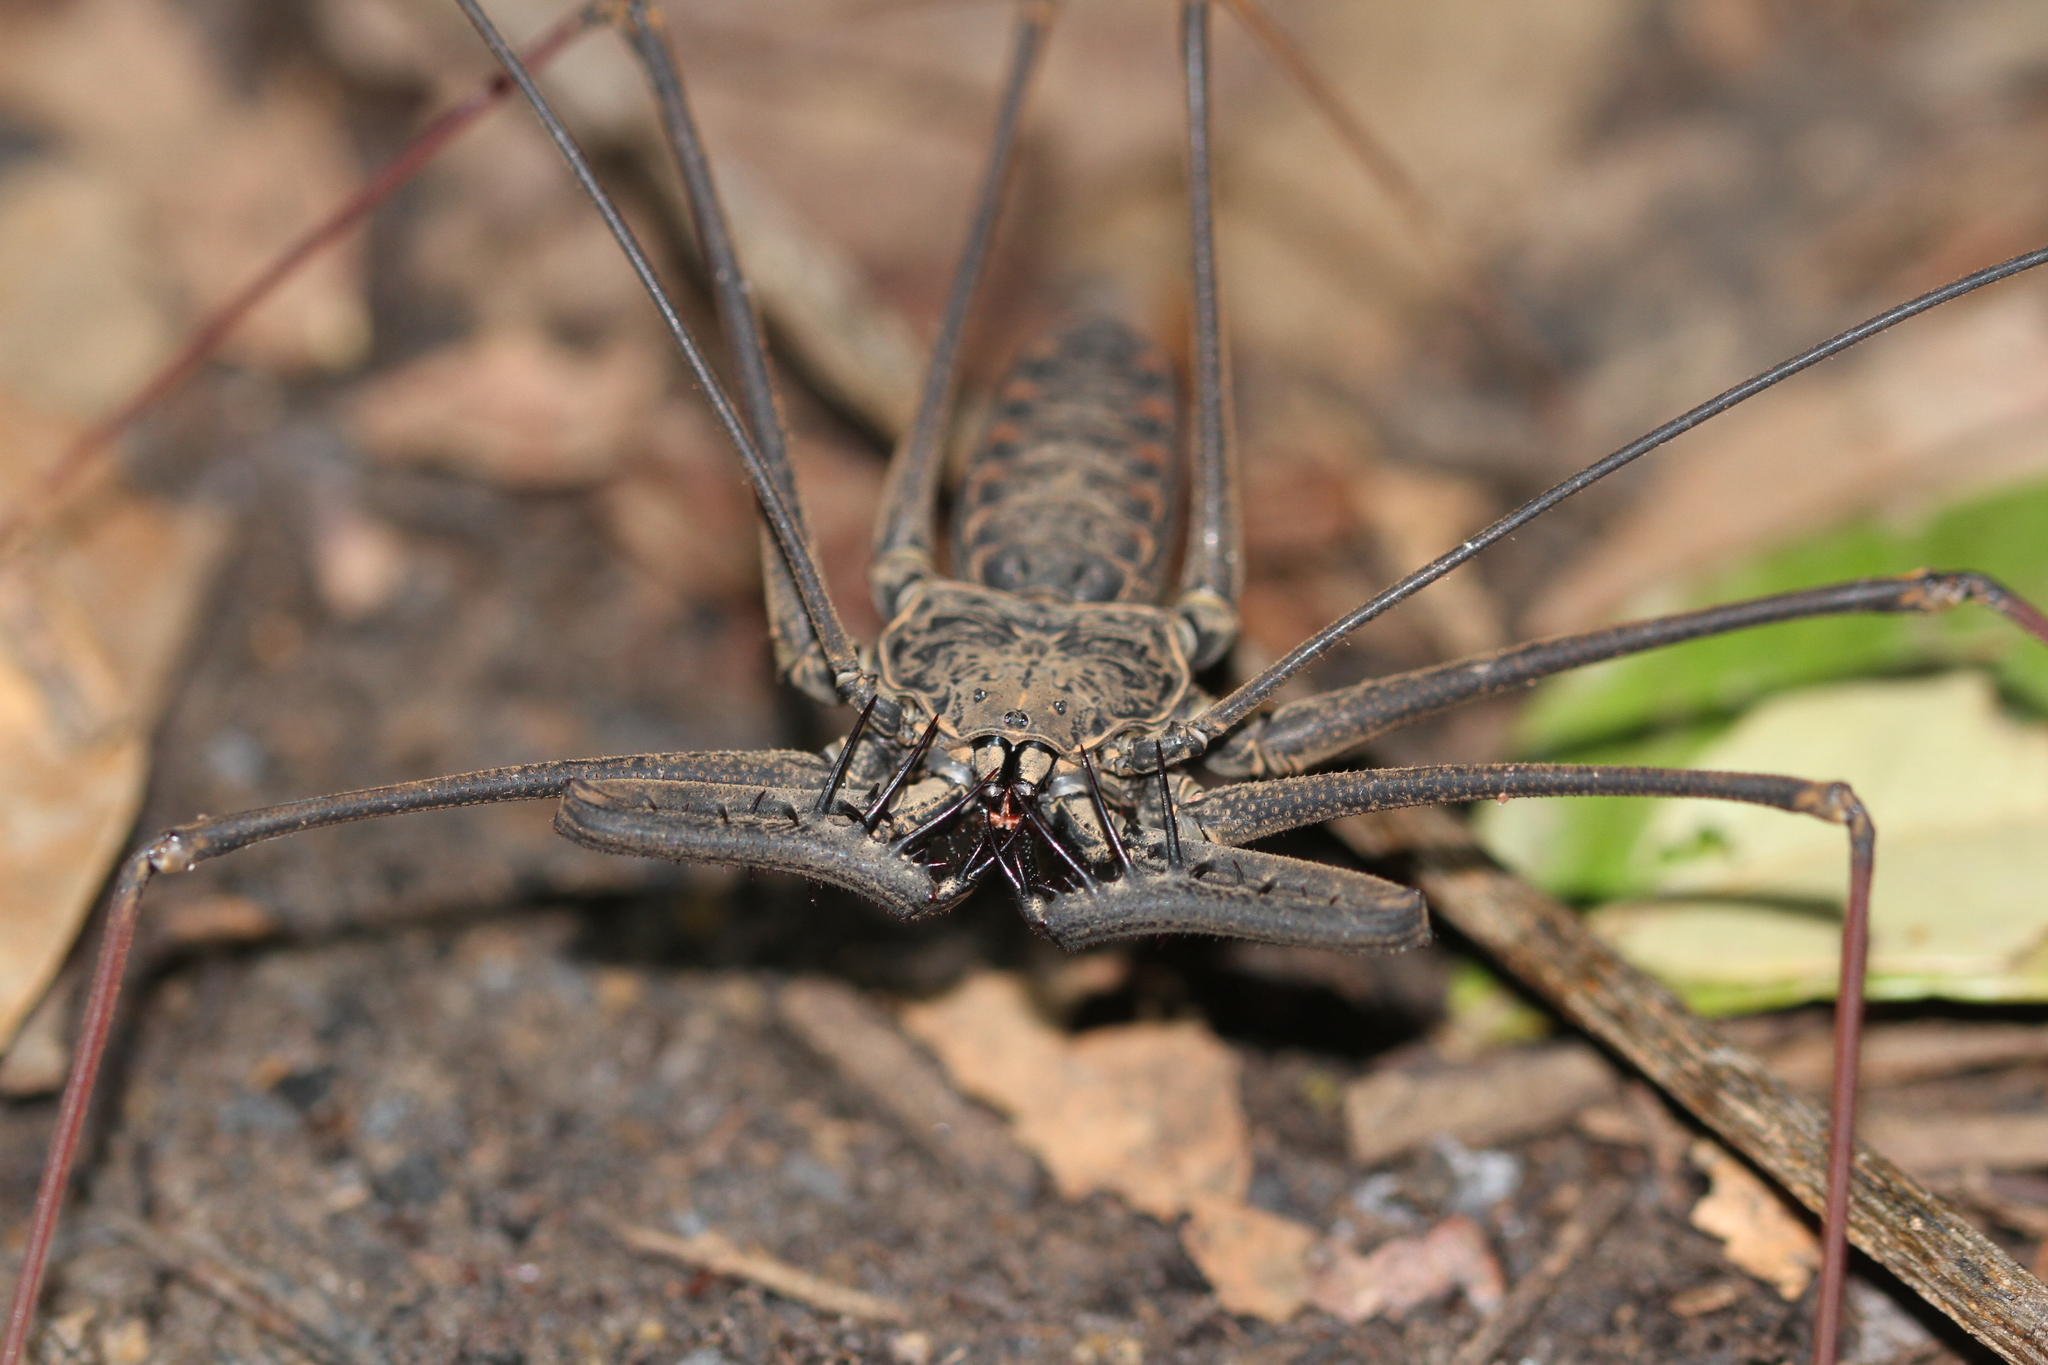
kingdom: Animalia
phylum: Arthropoda
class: Arachnida
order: Amblypygi
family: Phrynidae
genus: Heterophrynus
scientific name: Heterophrynus longicornis
